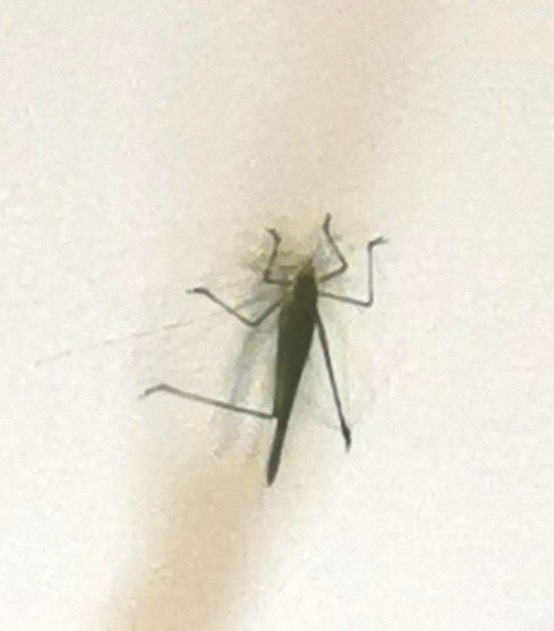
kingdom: Animalia
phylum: Arthropoda
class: Insecta
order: Orthoptera
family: Tettigoniidae
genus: Phaneroptera
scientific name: Phaneroptera falcata
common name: Sickle-bearing bush-cricket
